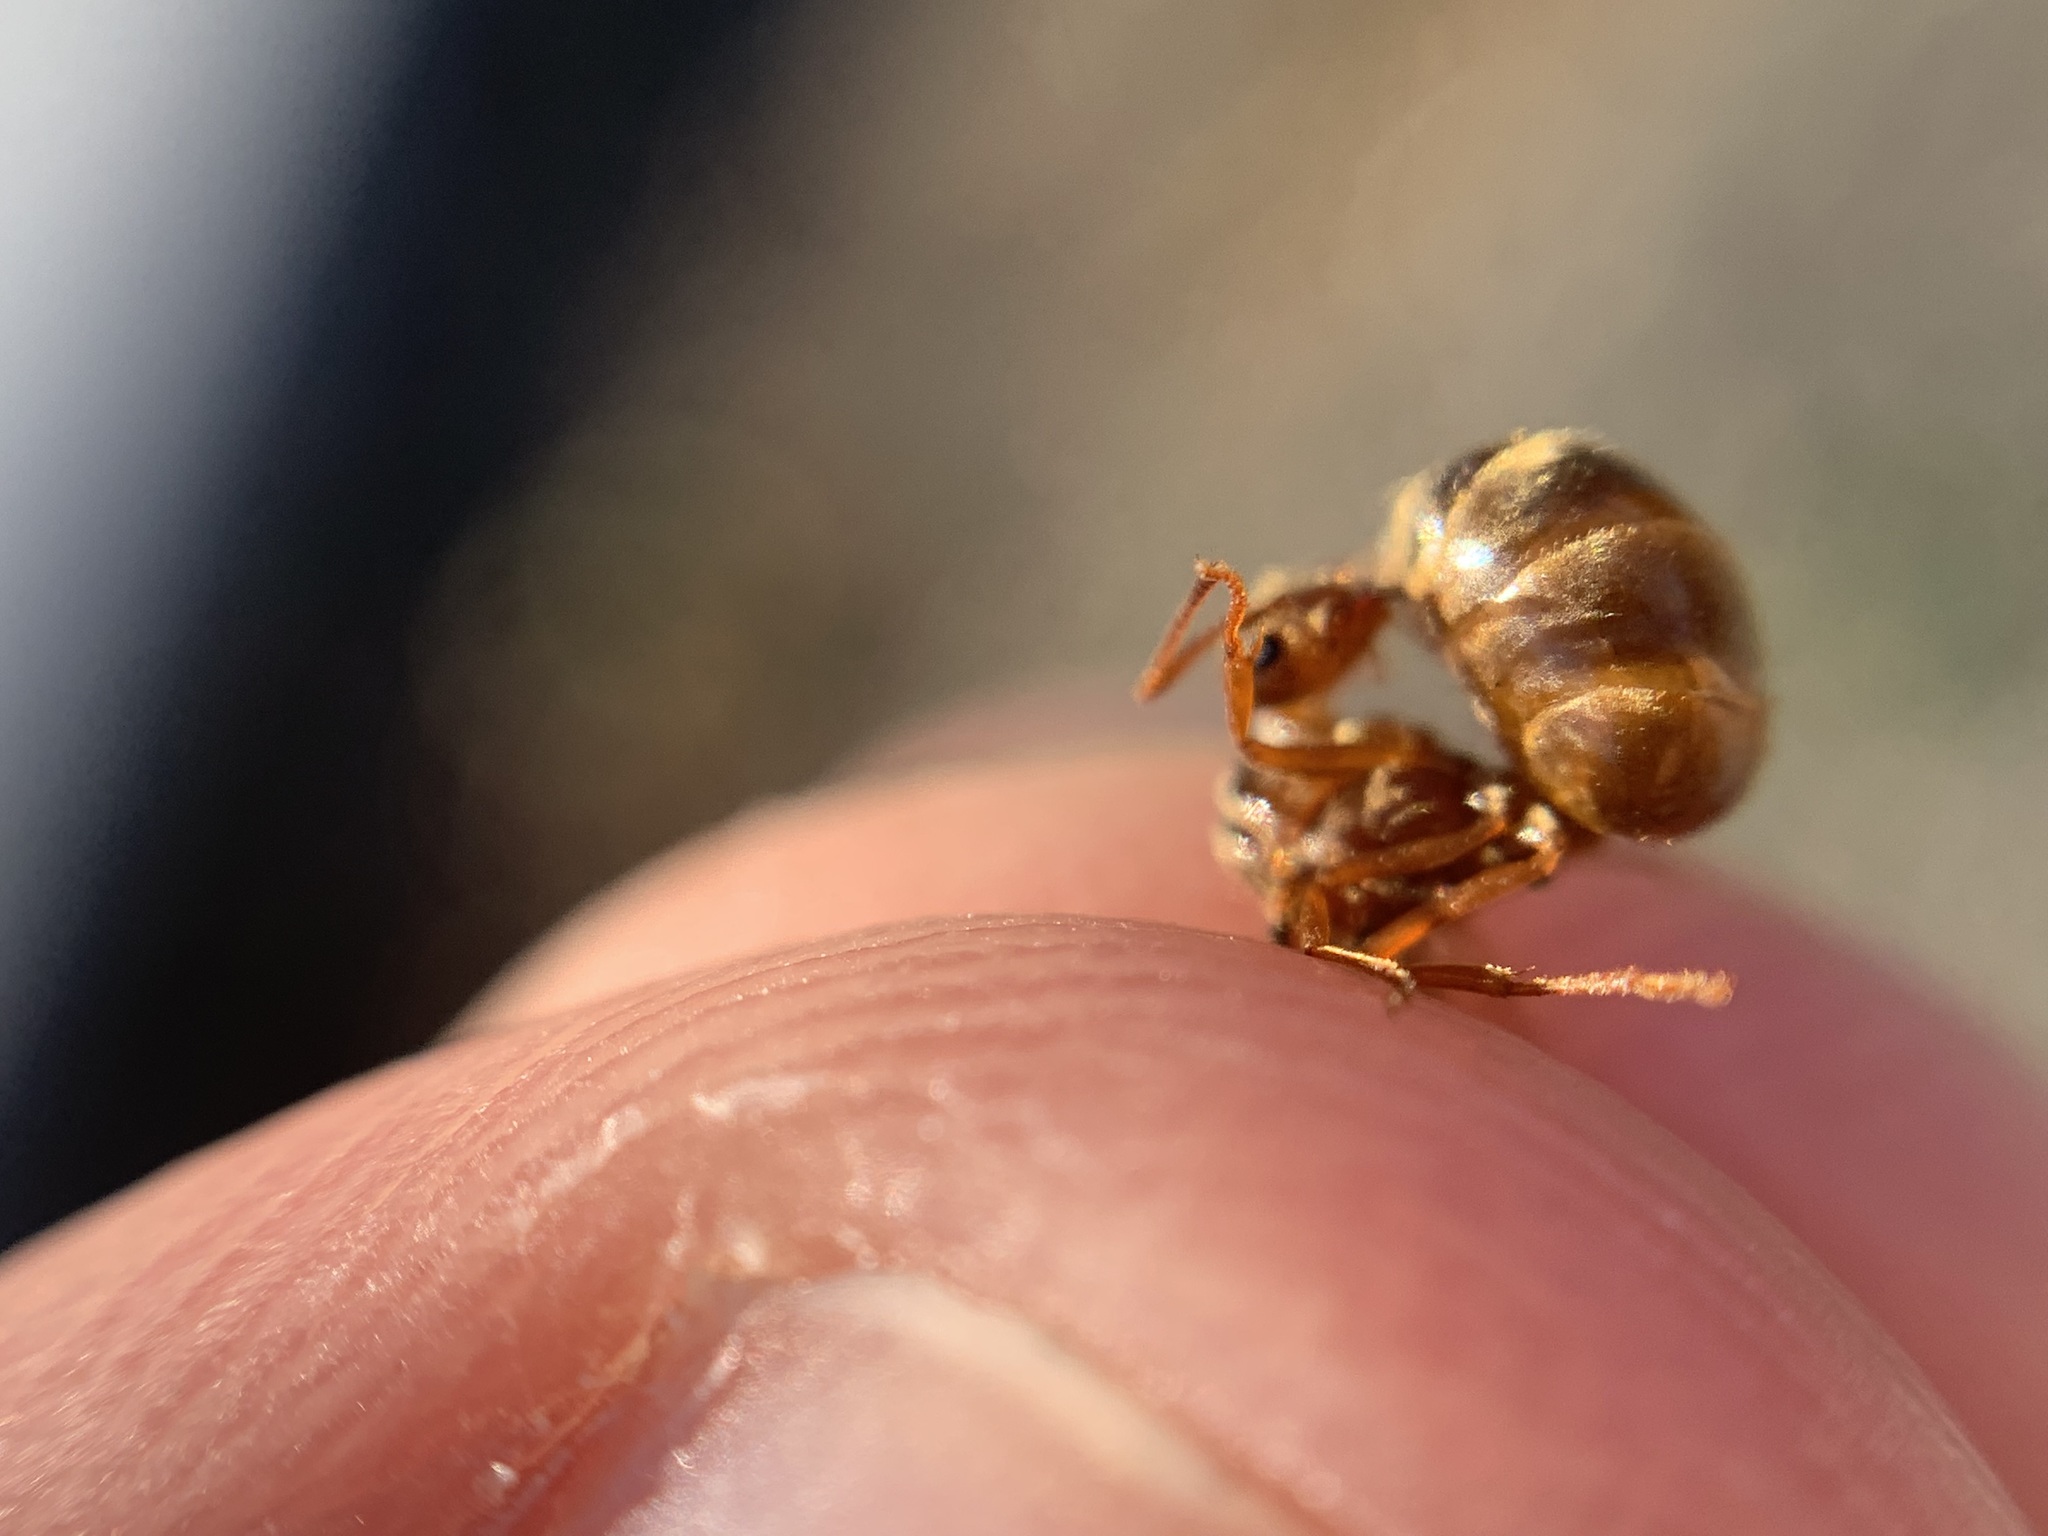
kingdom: Animalia
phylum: Arthropoda
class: Insecta
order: Hymenoptera
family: Formicidae
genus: Prenolepis
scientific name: Prenolepis imparis
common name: Small honey ant
